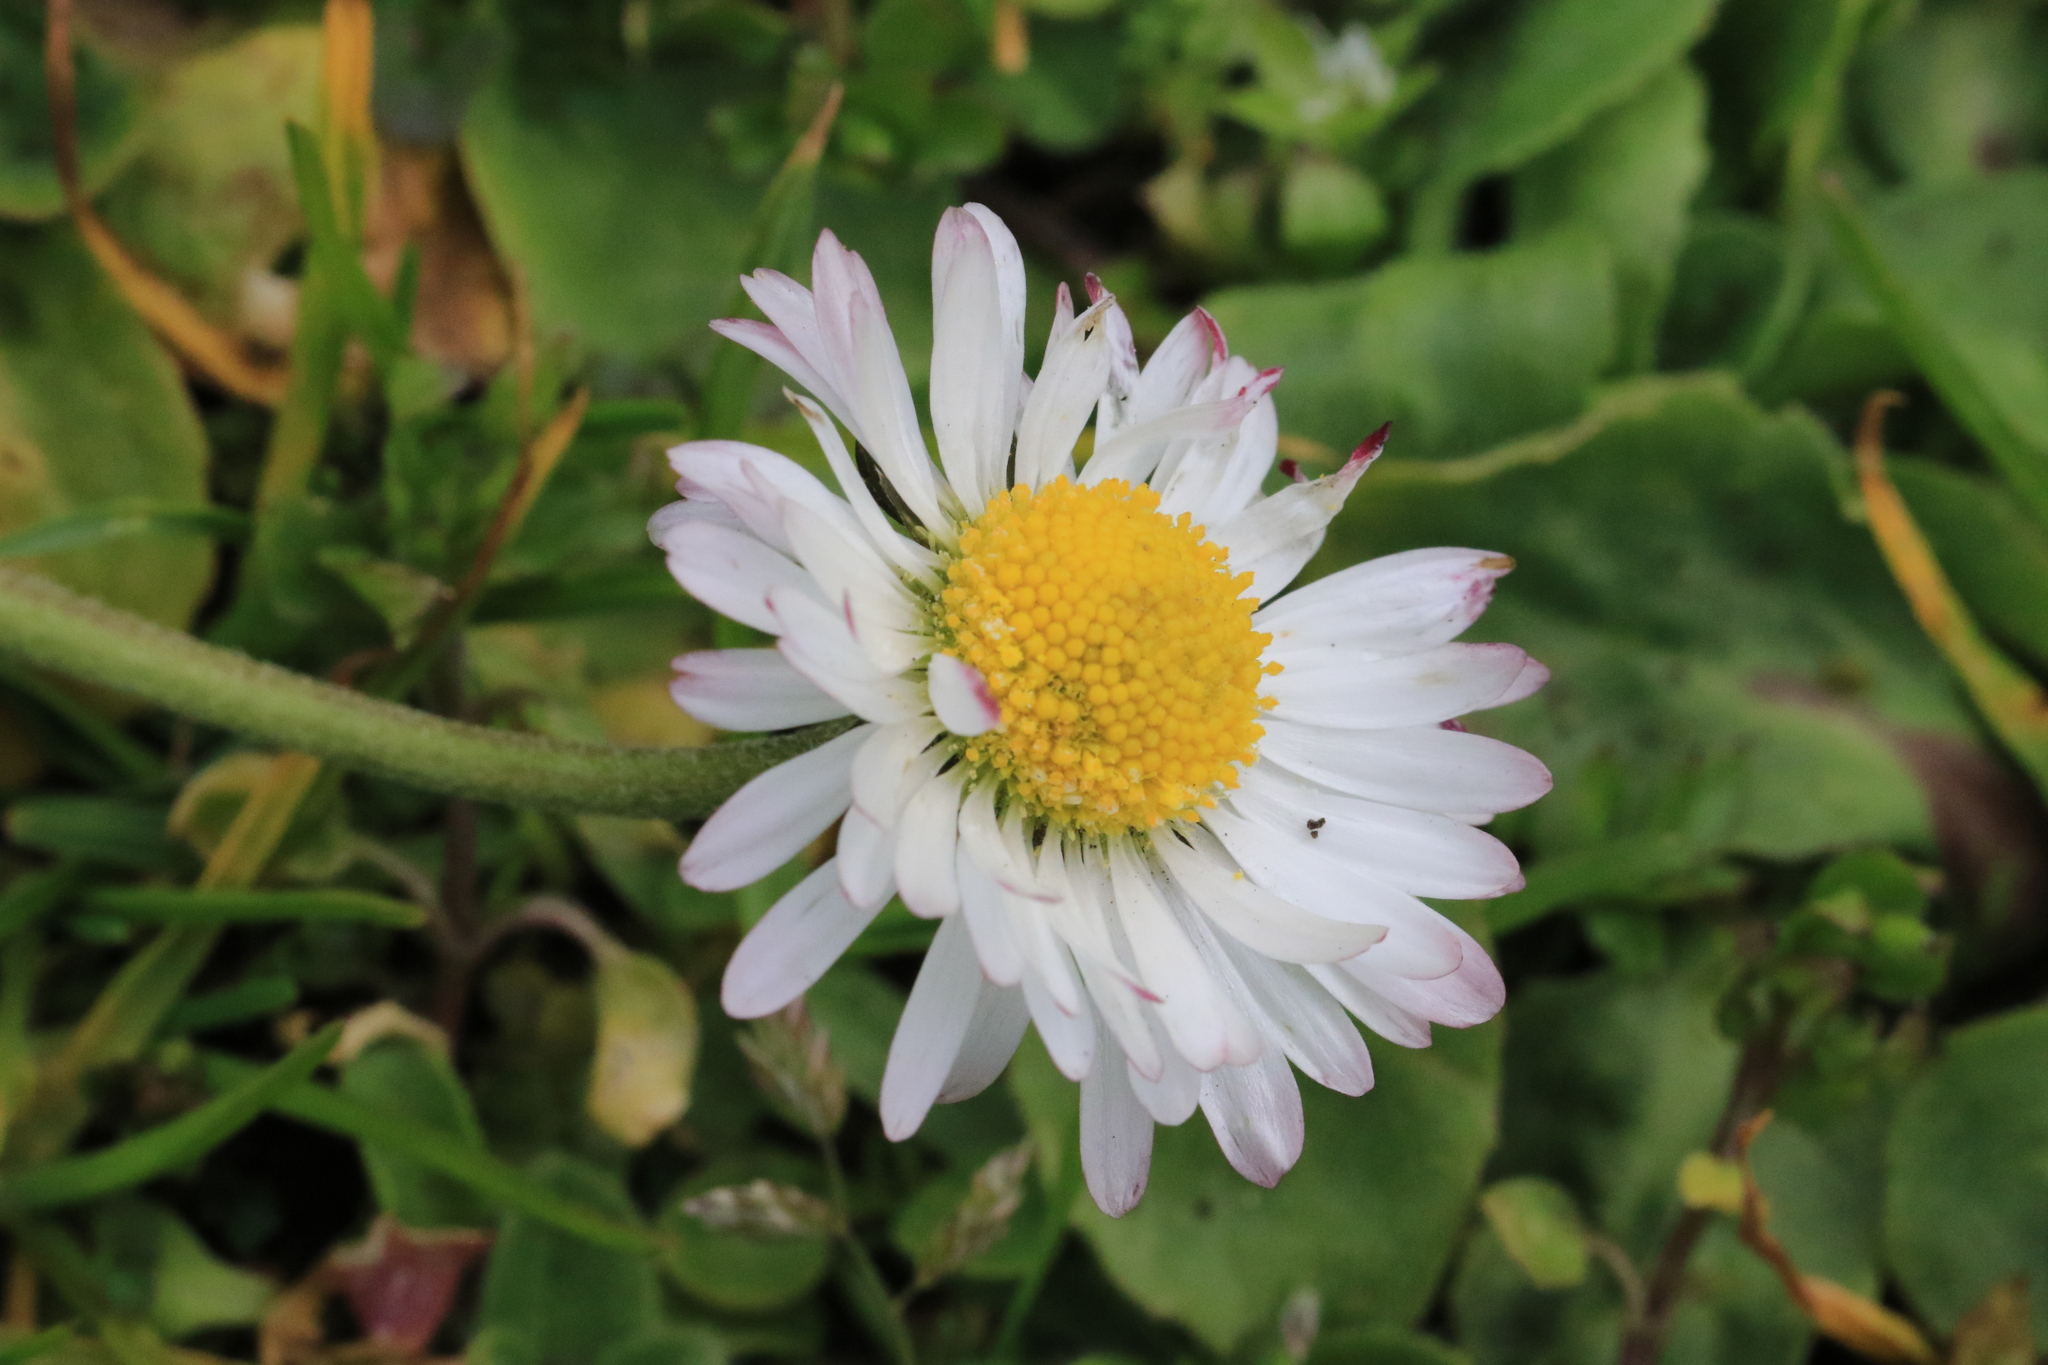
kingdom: Plantae
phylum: Tracheophyta
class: Magnoliopsida
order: Asterales
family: Asteraceae
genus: Bellis
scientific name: Bellis perennis
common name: Lawndaisy
